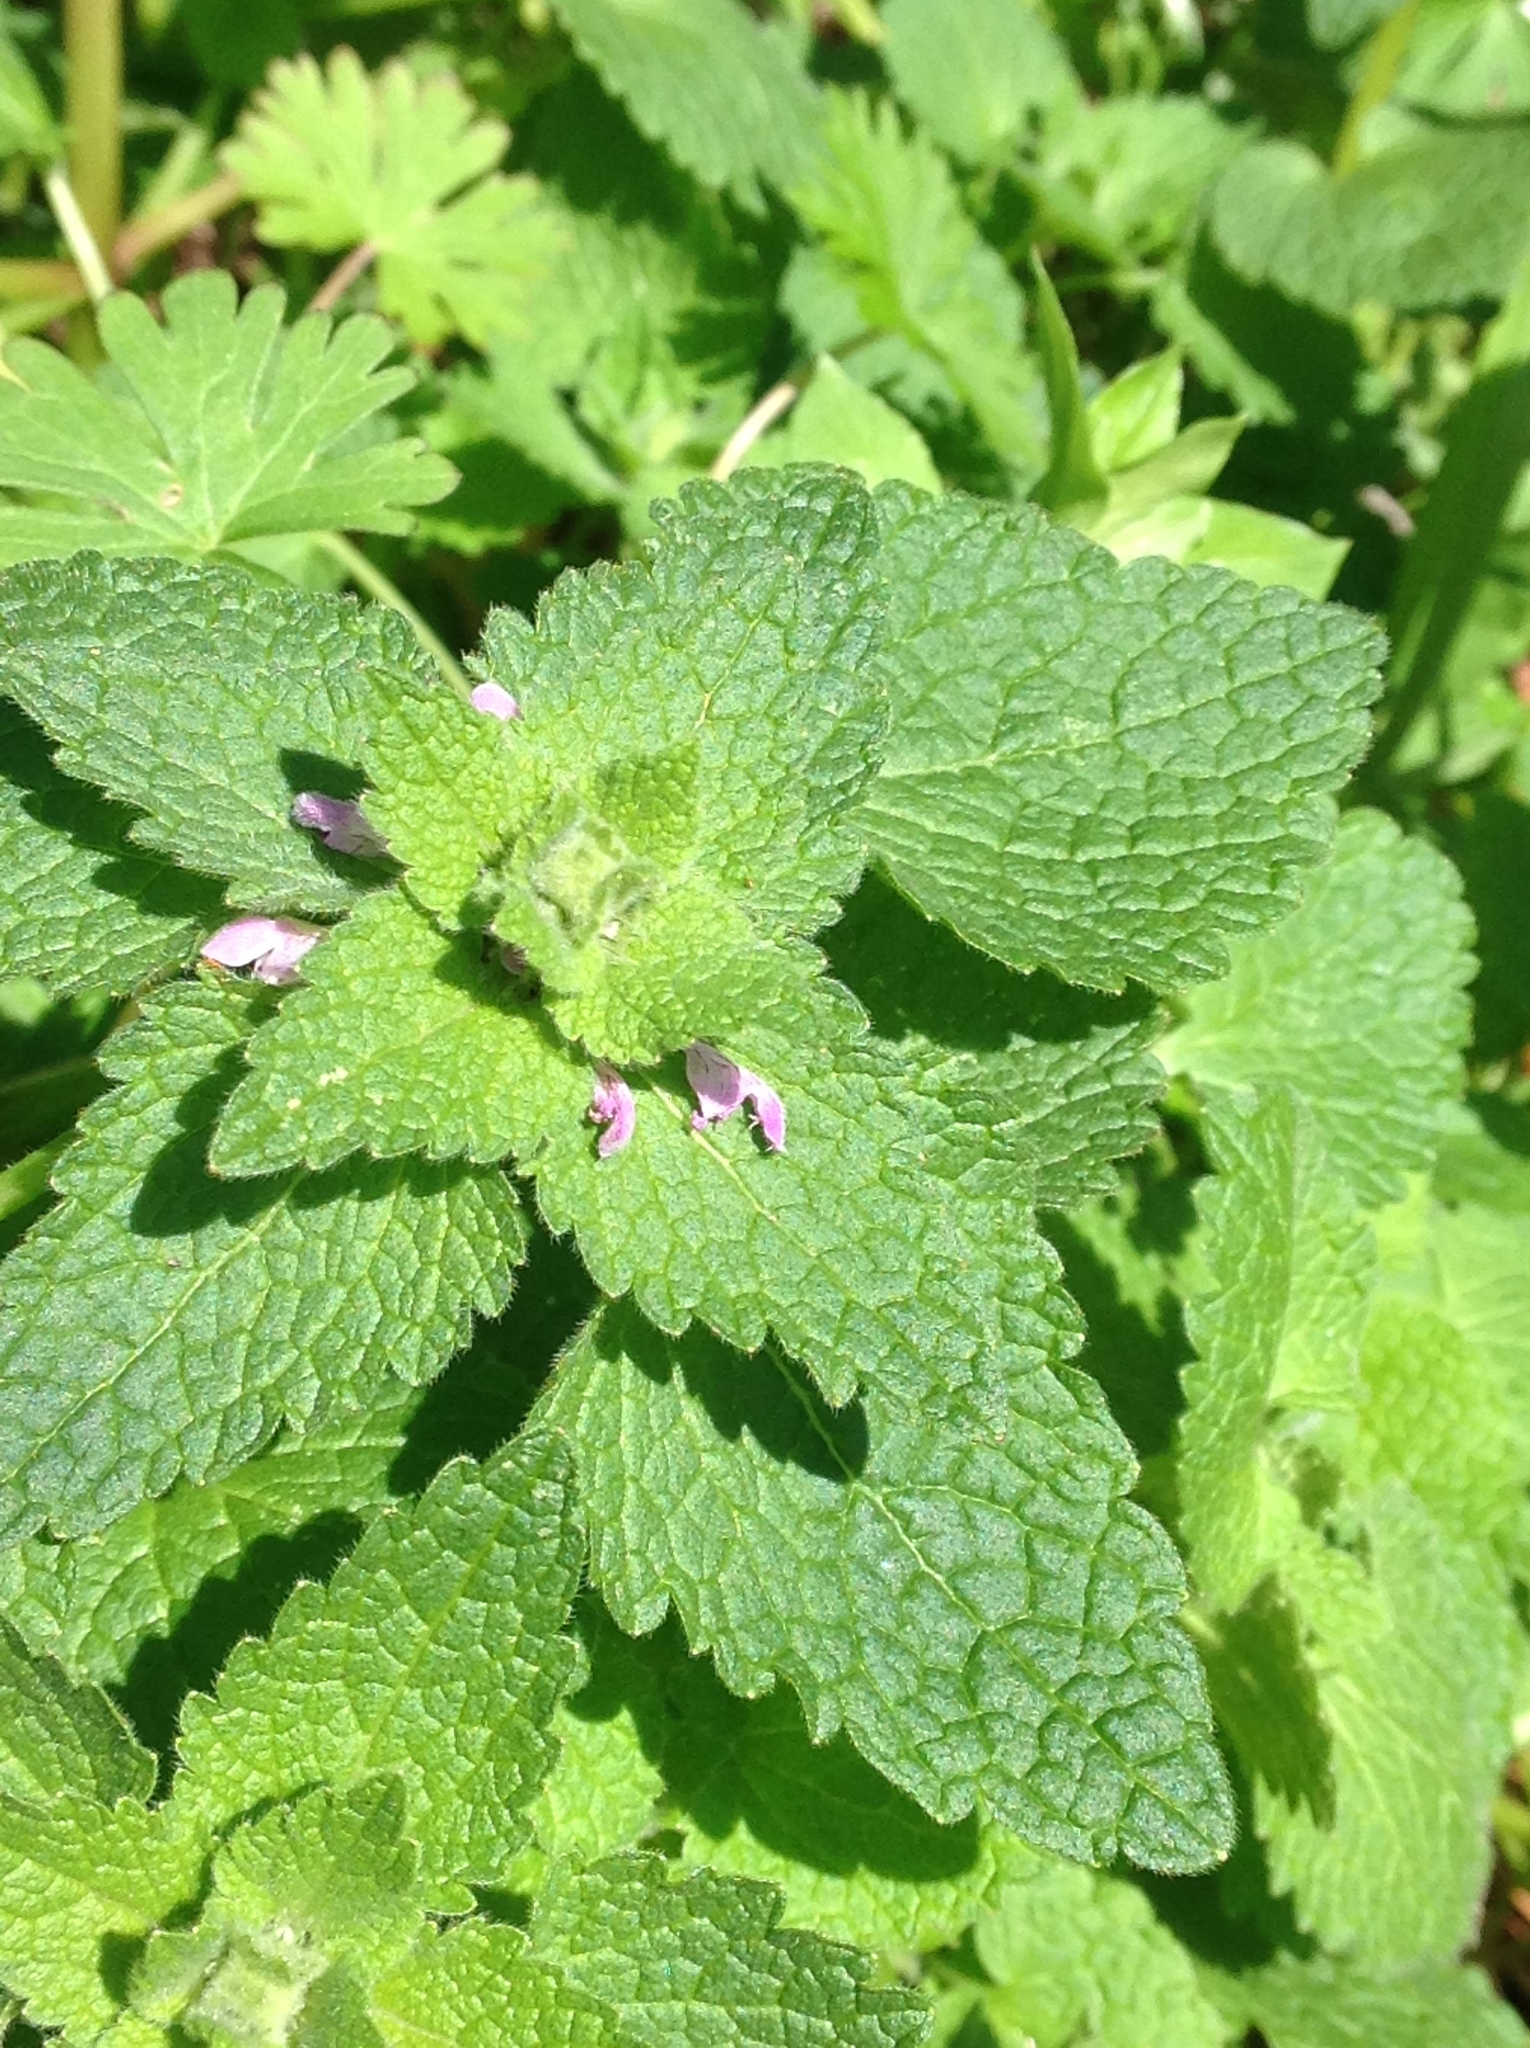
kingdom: Plantae
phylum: Tracheophyta
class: Magnoliopsida
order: Lamiales
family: Lamiaceae
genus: Lamium
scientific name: Lamium purpureum
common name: Red dead-nettle
